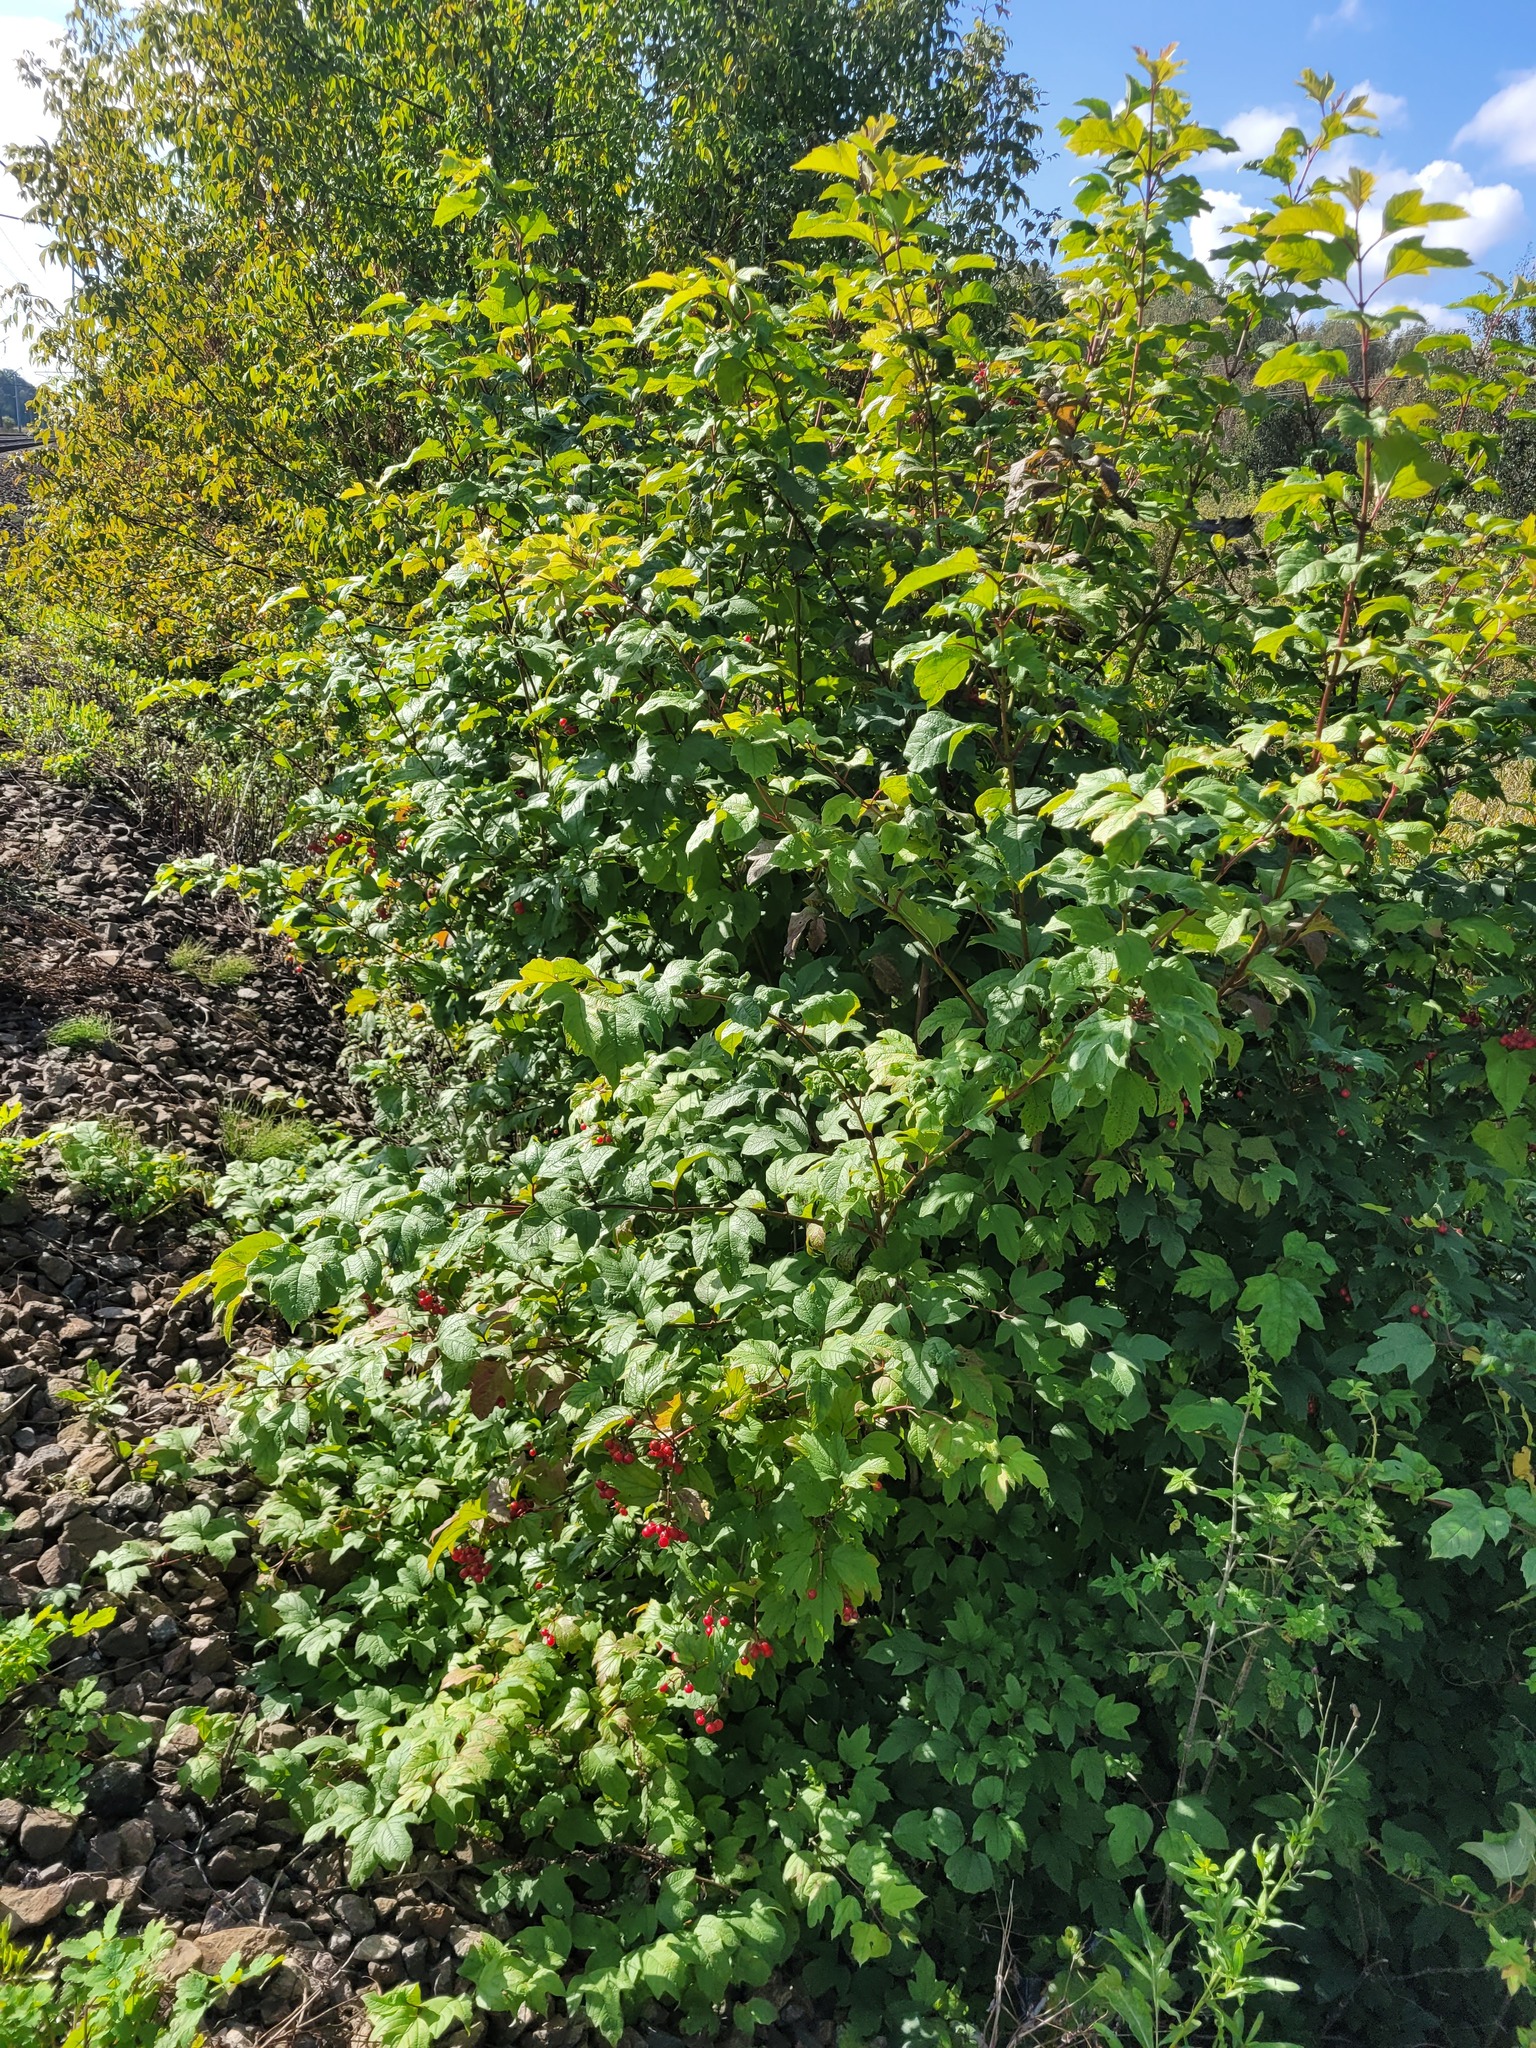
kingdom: Plantae
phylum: Tracheophyta
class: Magnoliopsida
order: Dipsacales
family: Viburnaceae
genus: Viburnum
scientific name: Viburnum opulus
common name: Guelder-rose
